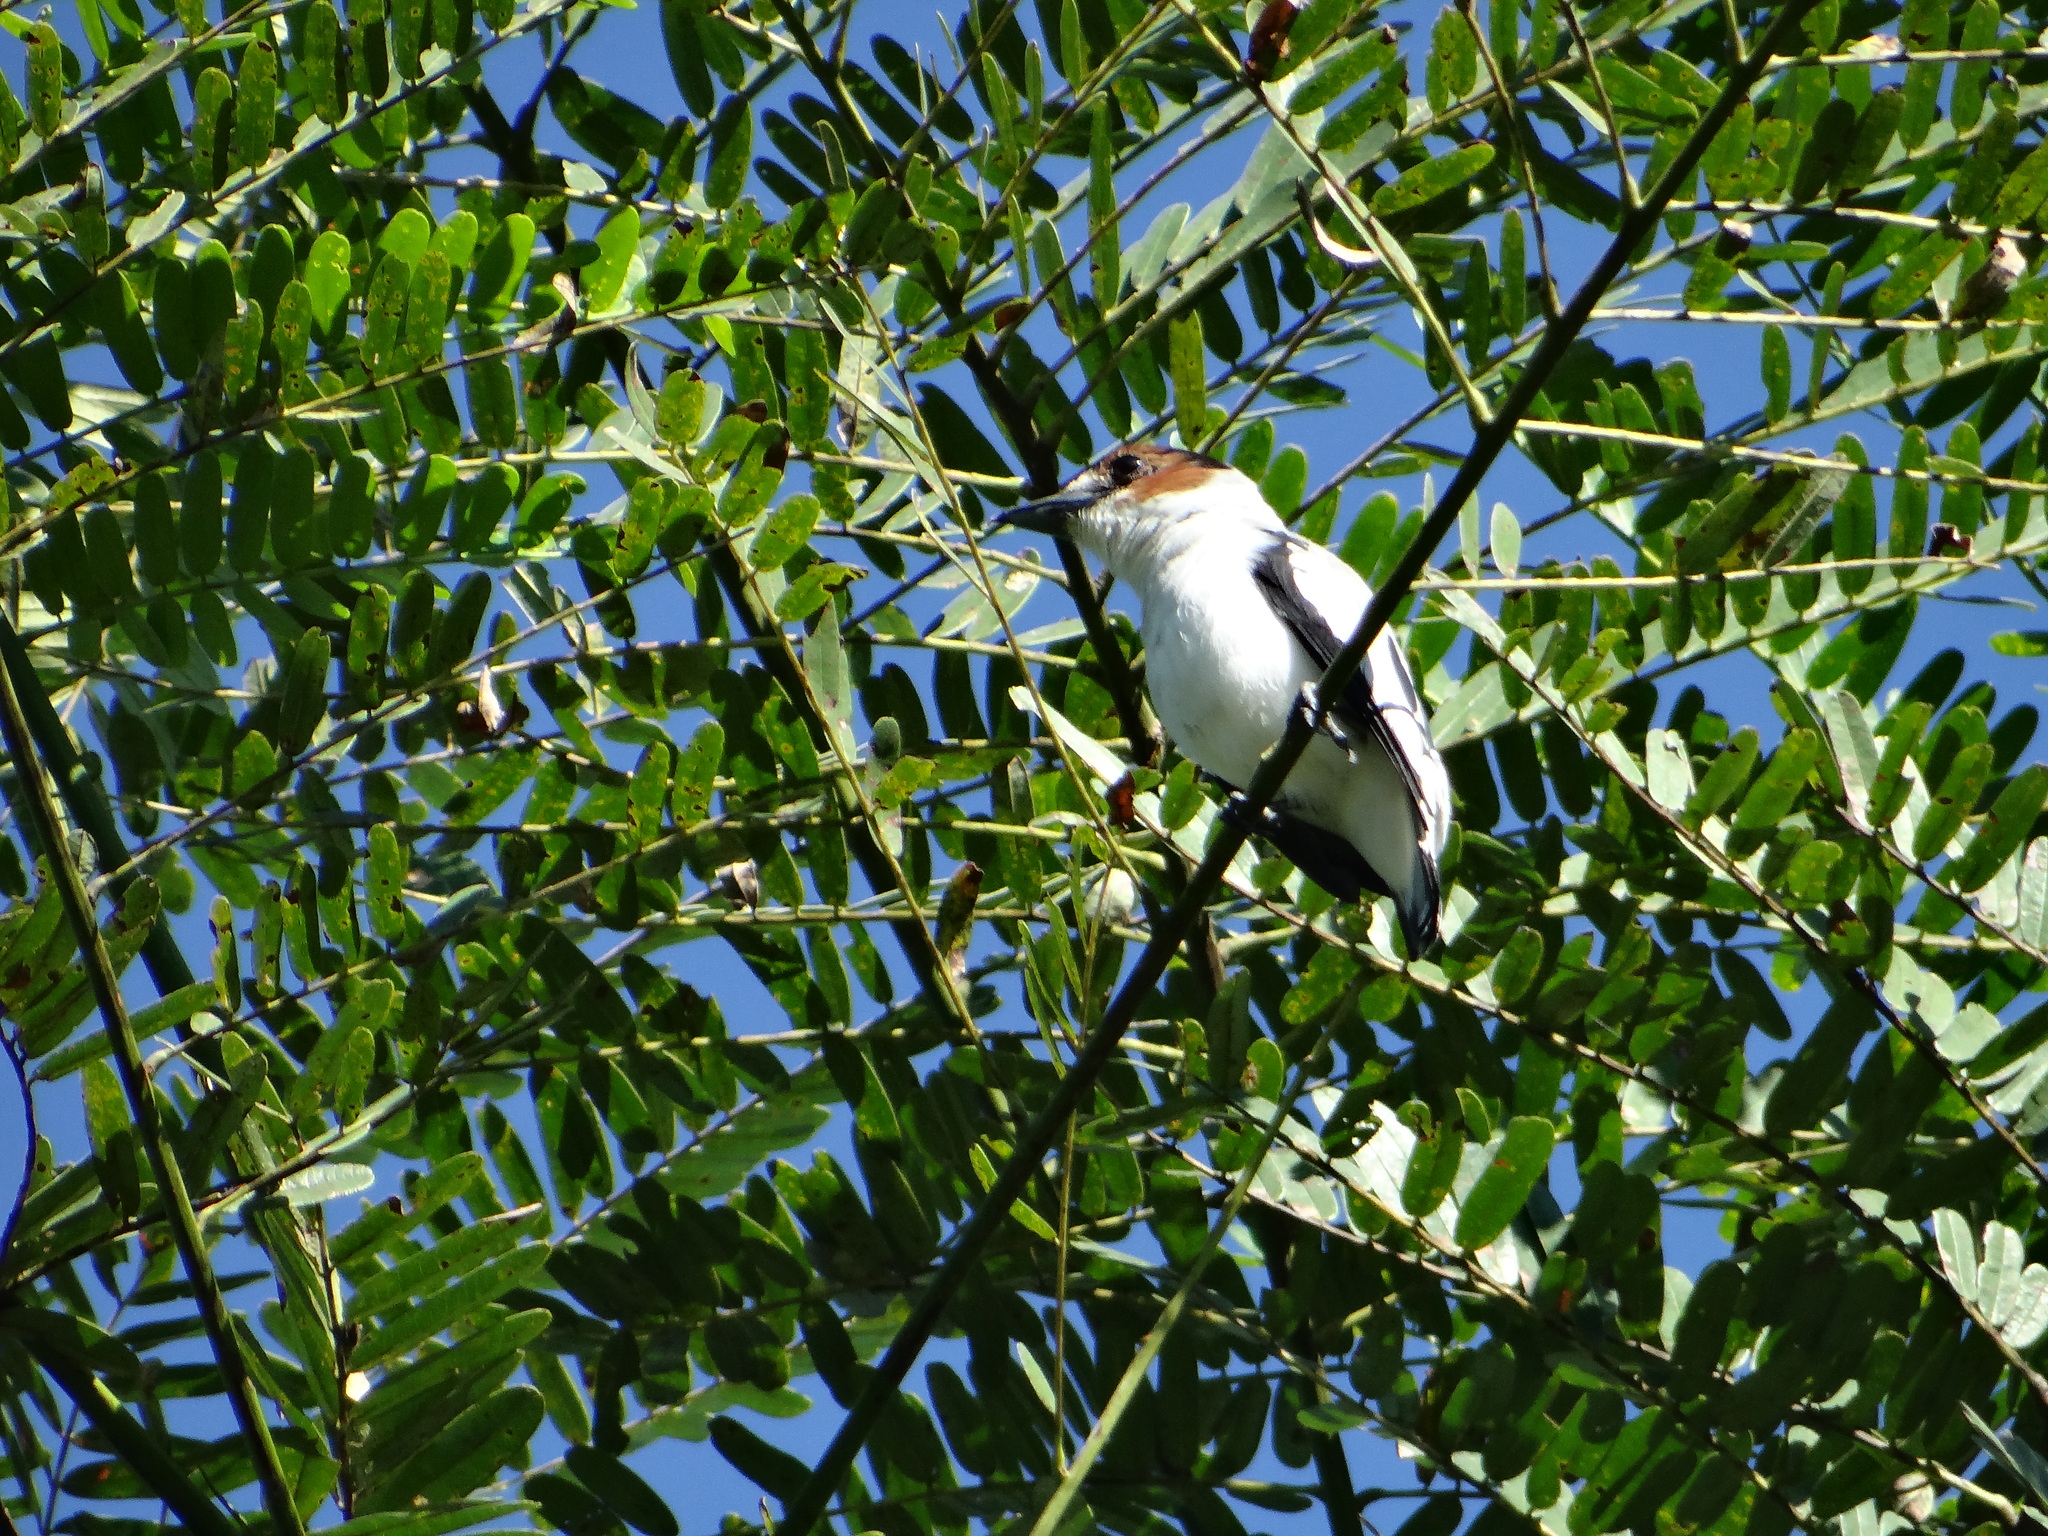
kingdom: Animalia
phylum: Chordata
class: Aves
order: Passeriformes
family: Cotingidae
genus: Tityra
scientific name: Tityra inquisitor
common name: Black-crowned tityra
